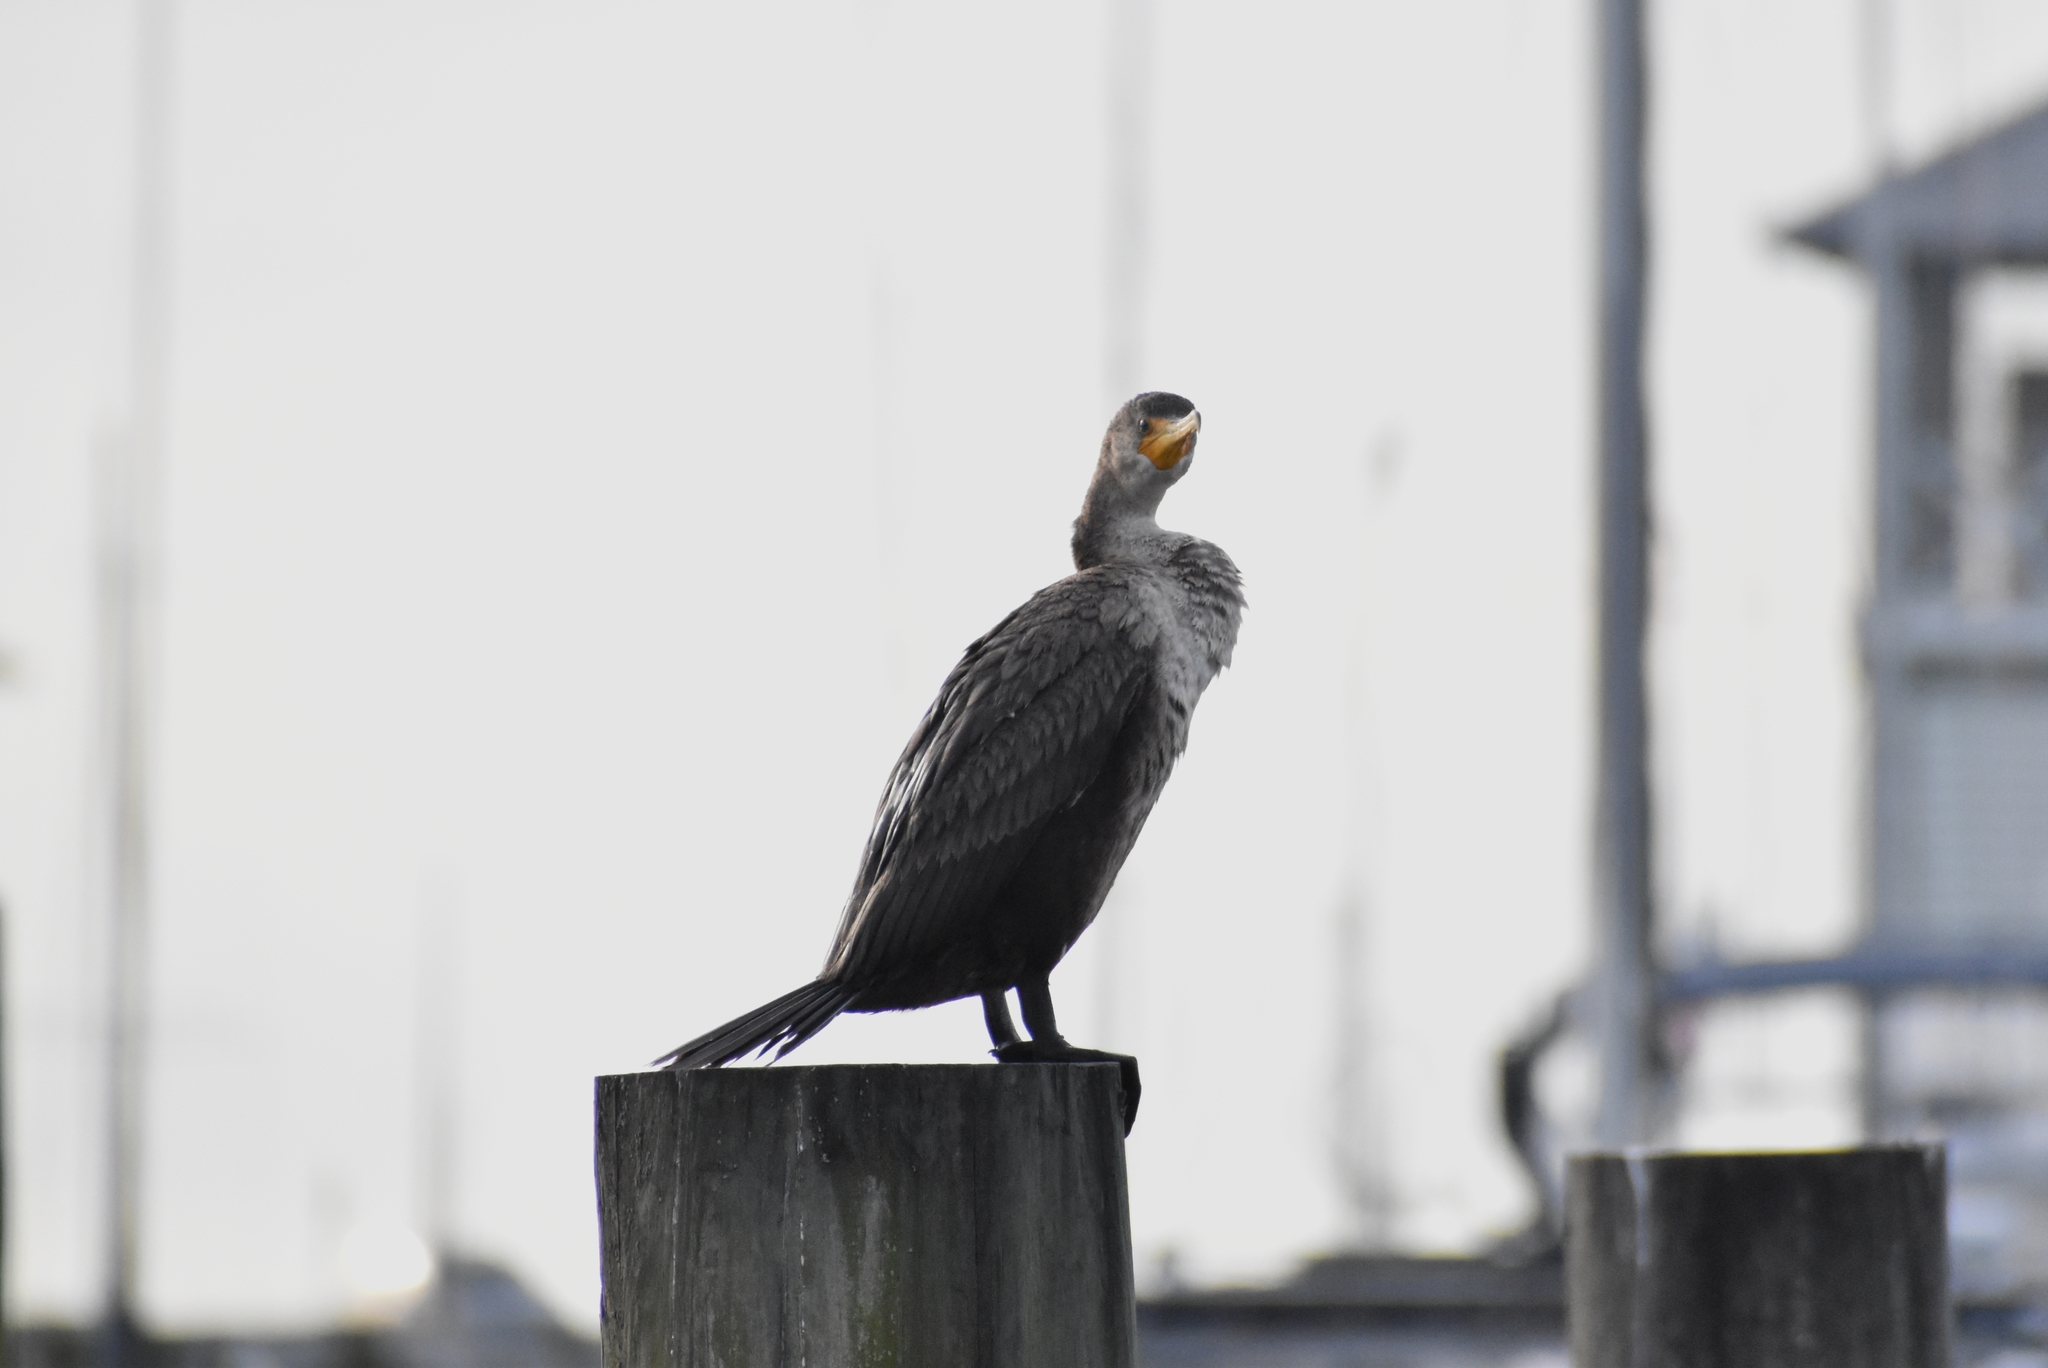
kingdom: Animalia
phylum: Chordata
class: Aves
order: Suliformes
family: Phalacrocoracidae
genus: Phalacrocorax
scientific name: Phalacrocorax auritus
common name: Double-crested cormorant
